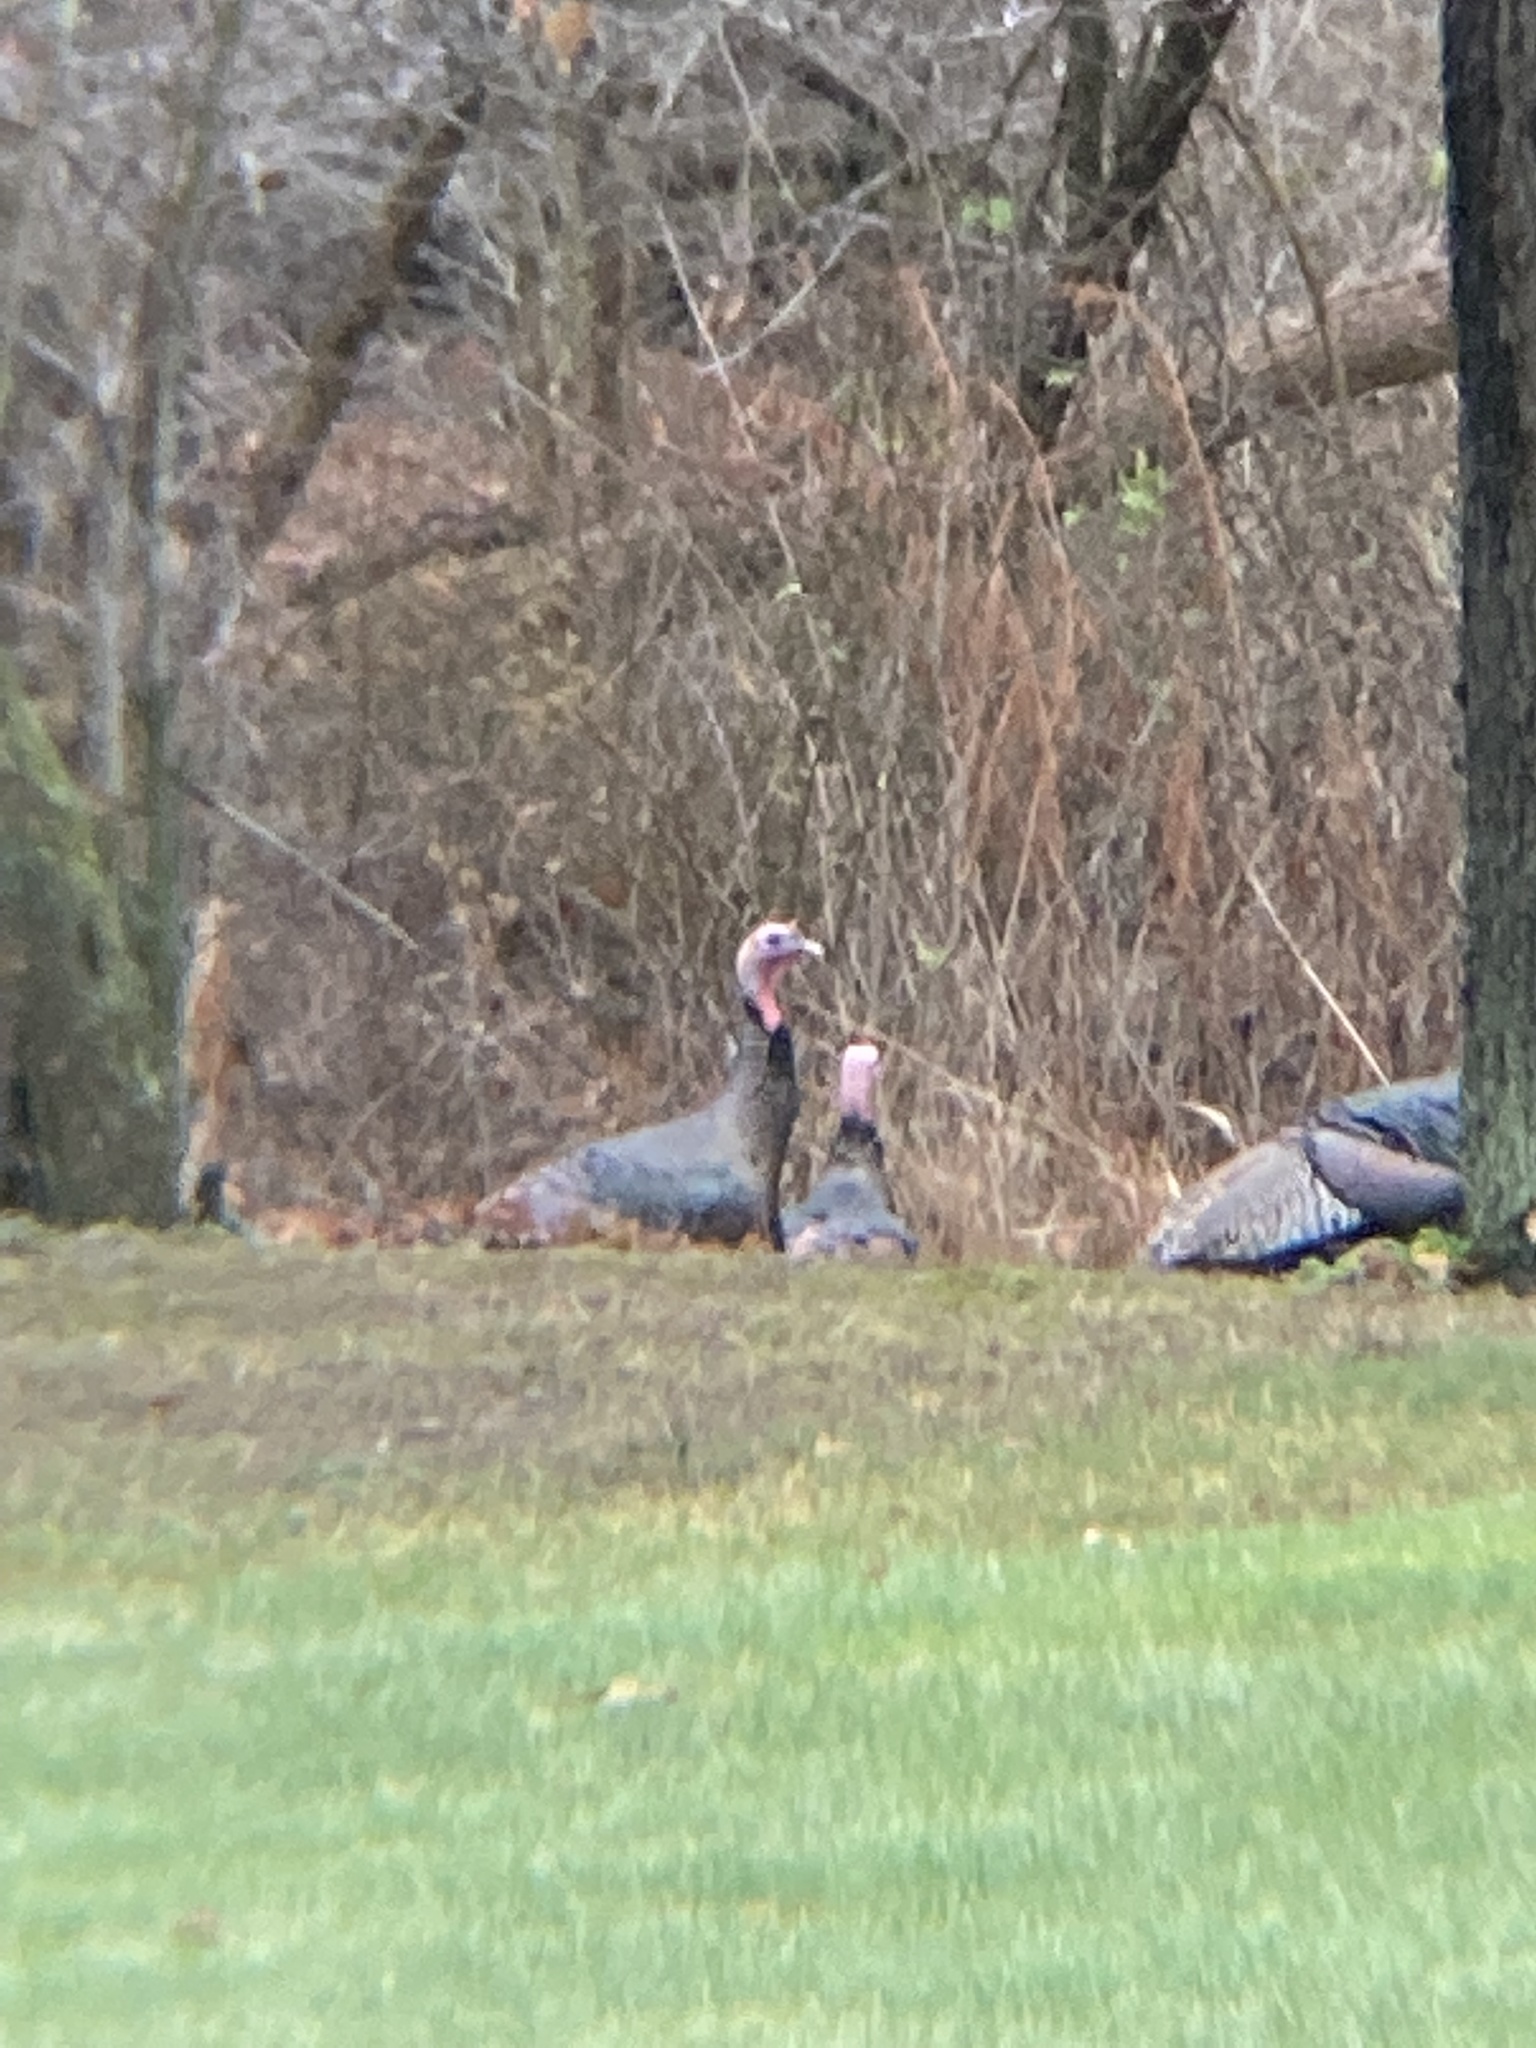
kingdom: Animalia
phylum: Chordata
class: Aves
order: Galliformes
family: Phasianidae
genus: Meleagris
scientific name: Meleagris gallopavo
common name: Wild turkey
